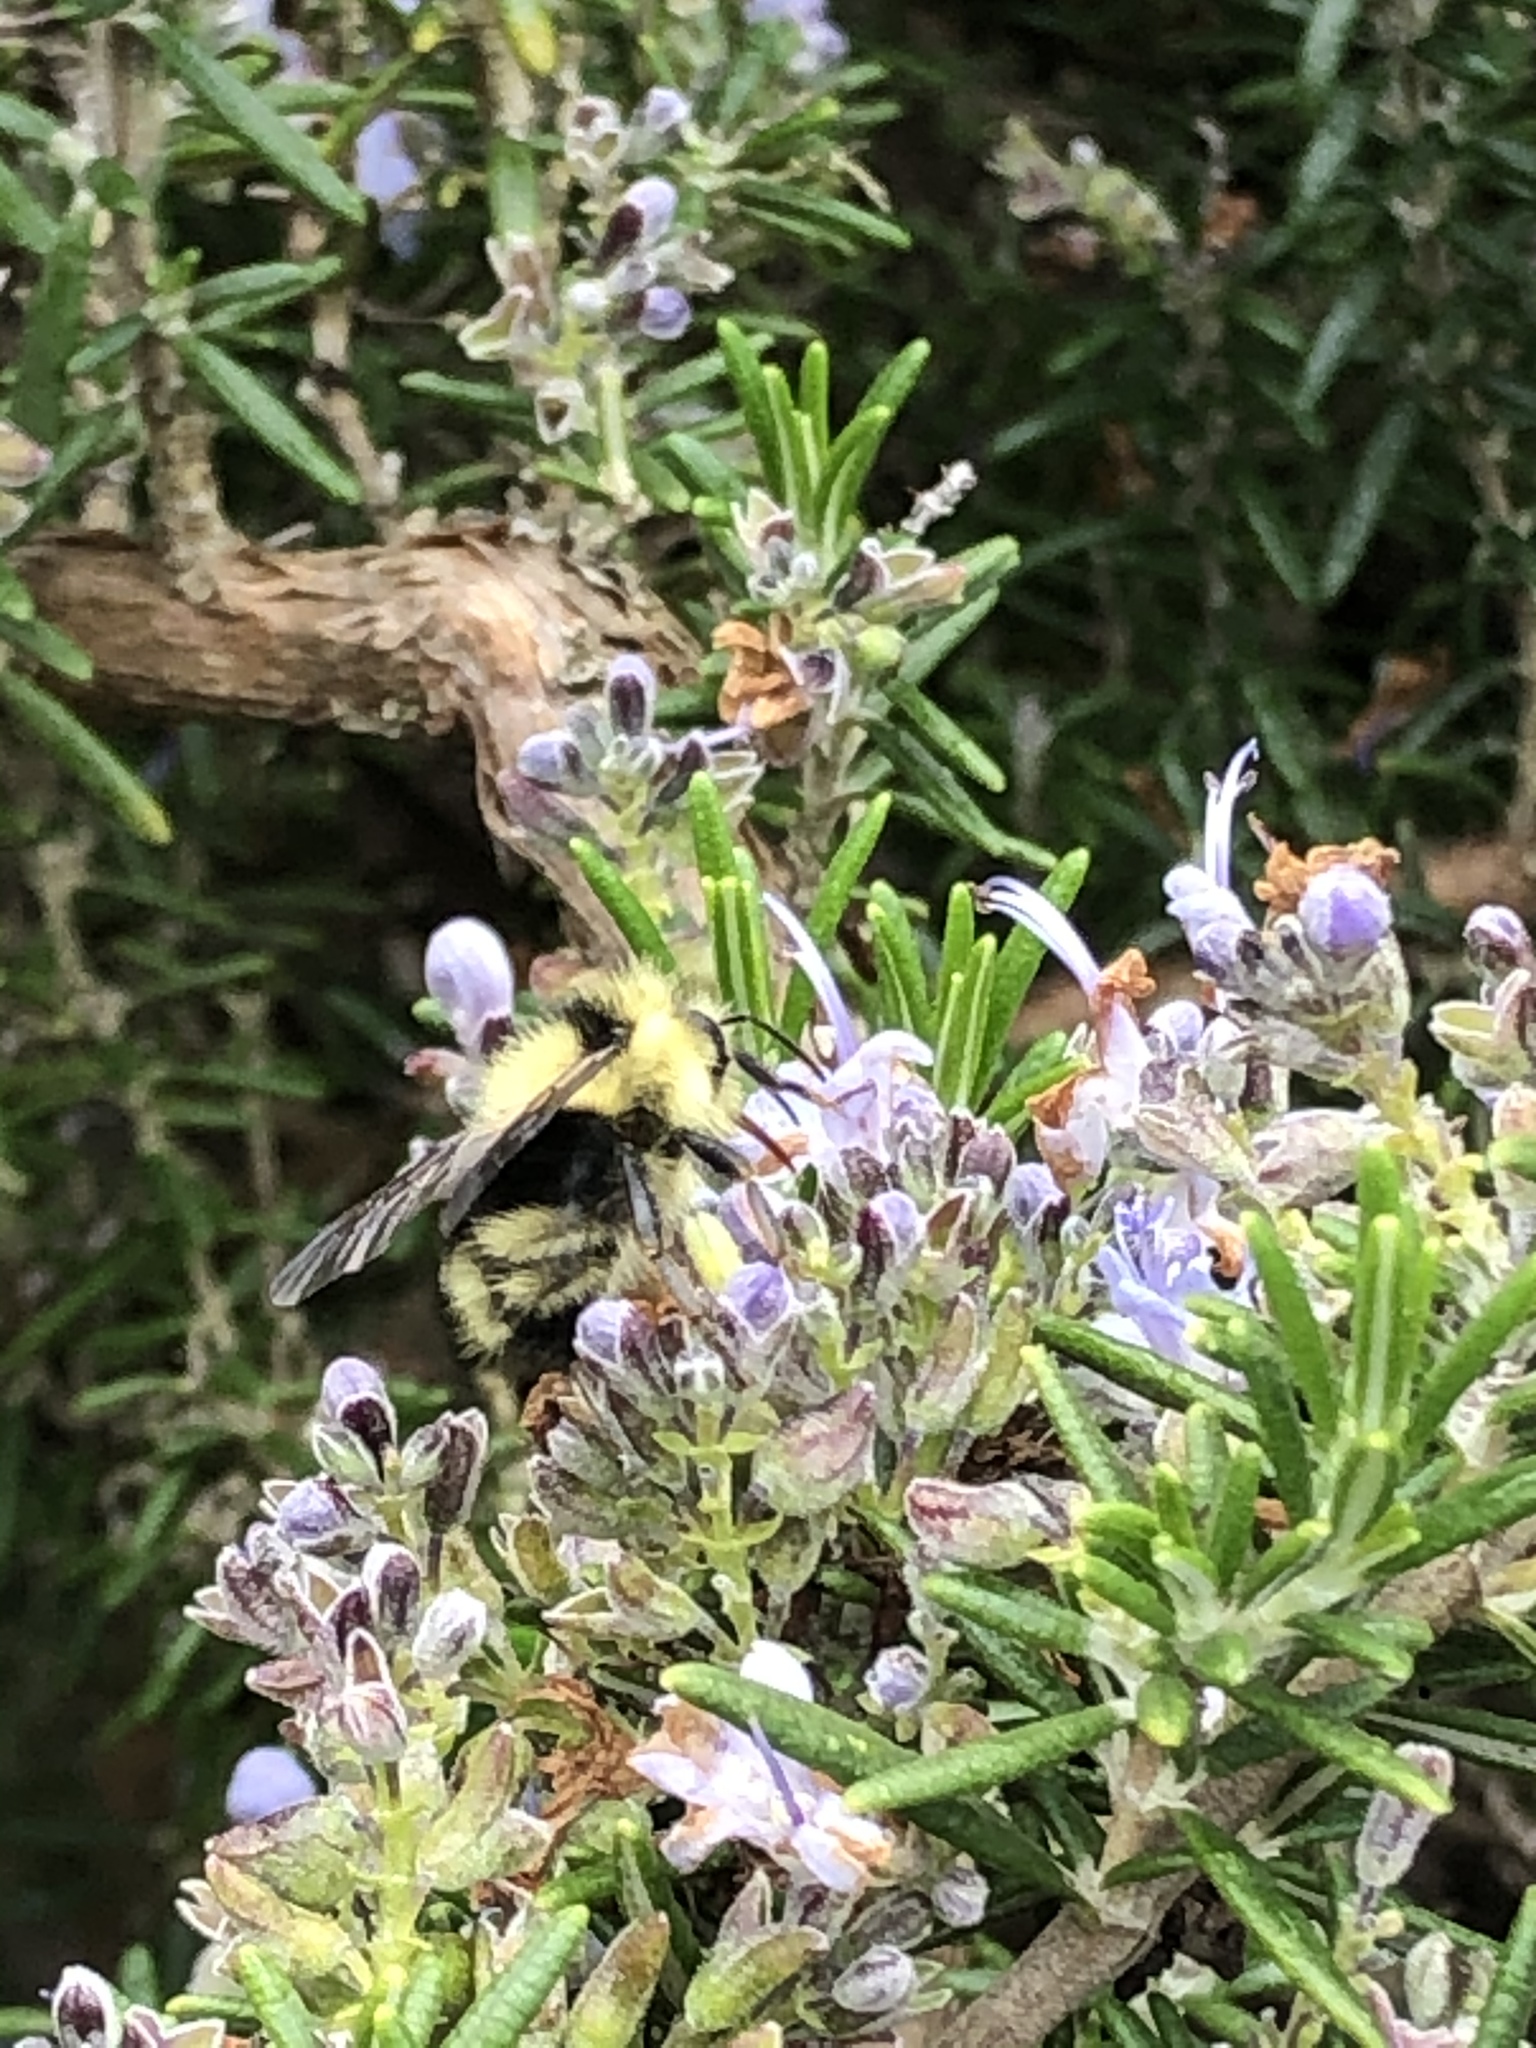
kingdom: Animalia
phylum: Arthropoda
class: Insecta
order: Hymenoptera
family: Apidae
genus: Bombus
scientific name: Bombus melanopygus
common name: Black tail bumble bee
